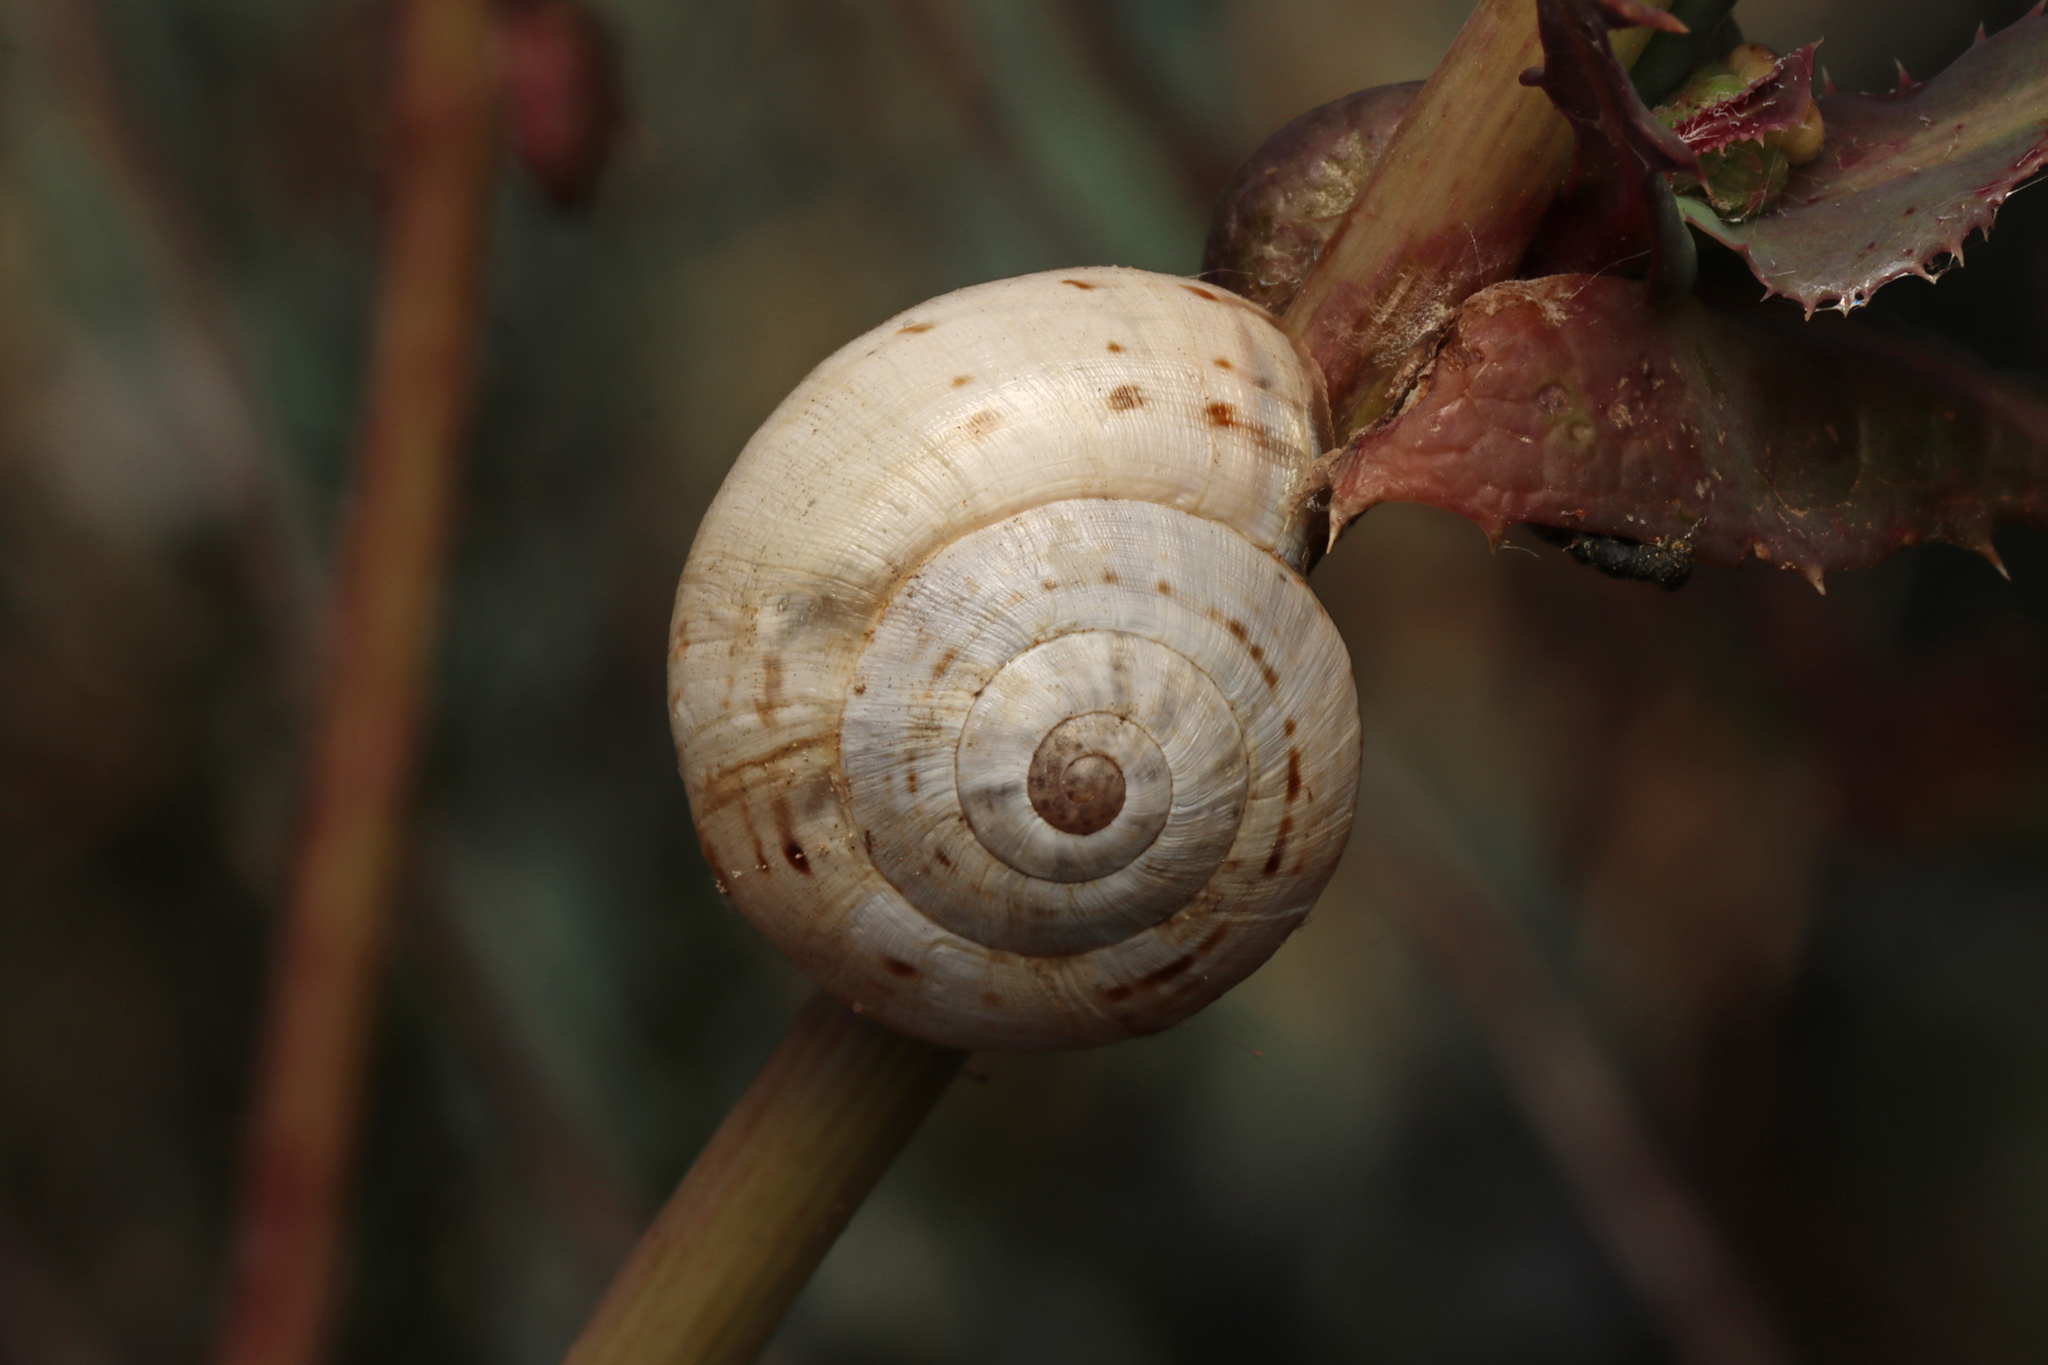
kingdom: Animalia
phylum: Mollusca
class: Gastropoda
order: Stylommatophora
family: Helicidae
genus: Theba
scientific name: Theba pisana
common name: White snail
